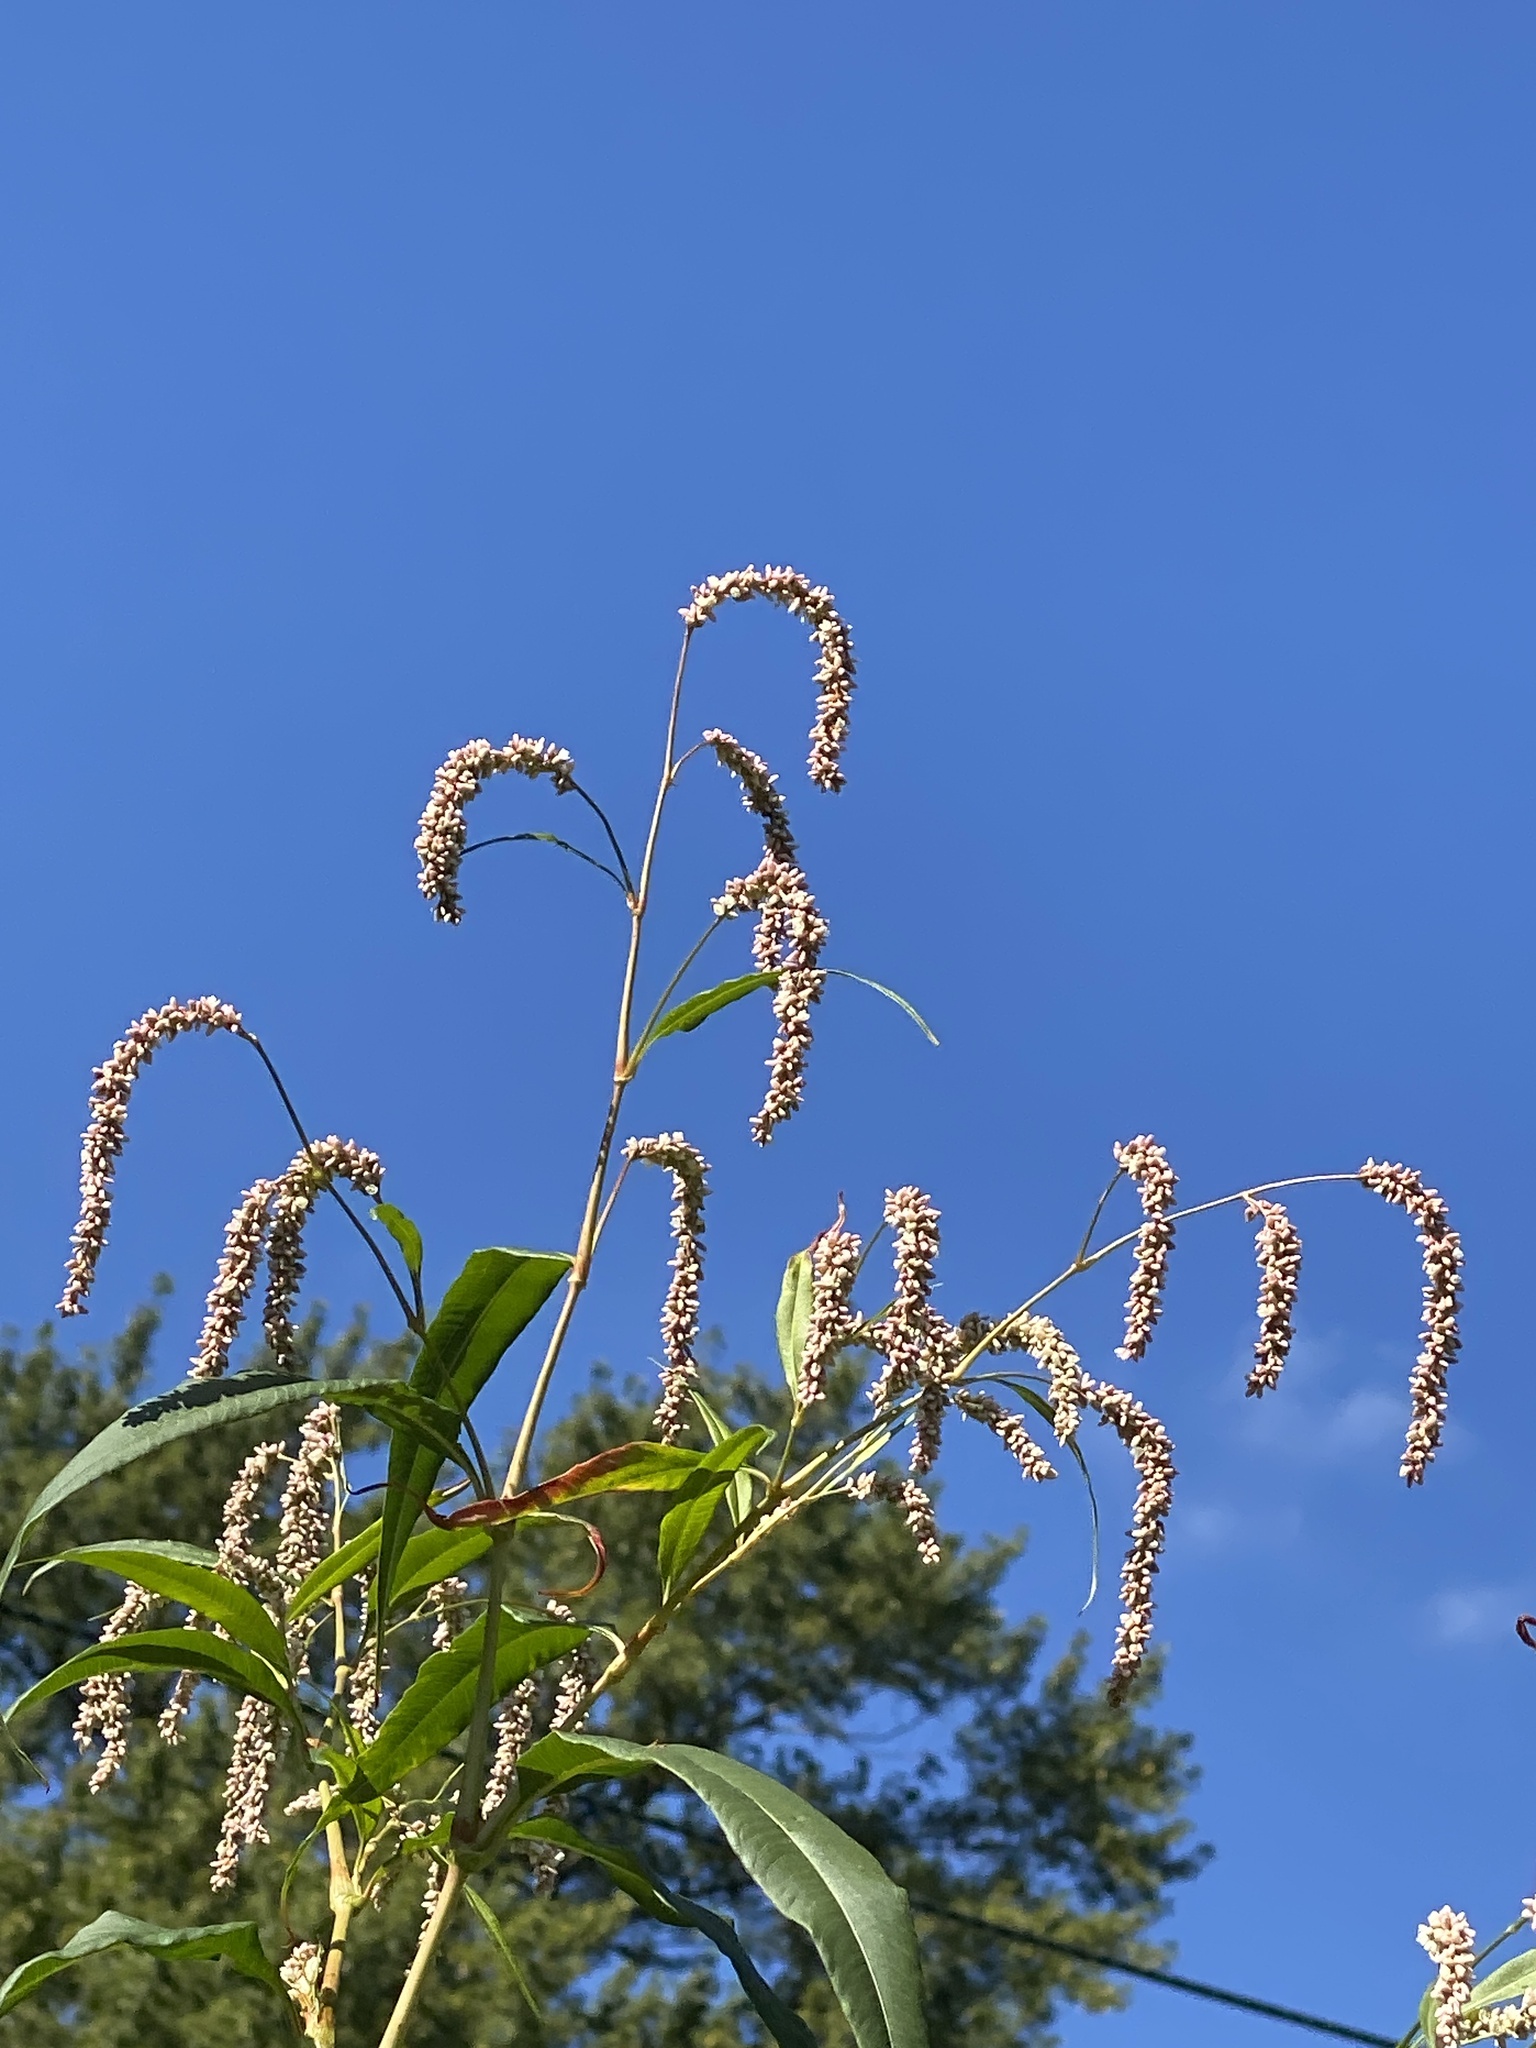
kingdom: Plantae
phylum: Tracheophyta
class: Magnoliopsida
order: Caryophyllales
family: Polygonaceae
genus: Persicaria
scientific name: Persicaria lapathifolia
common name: Curlytop knotweed
